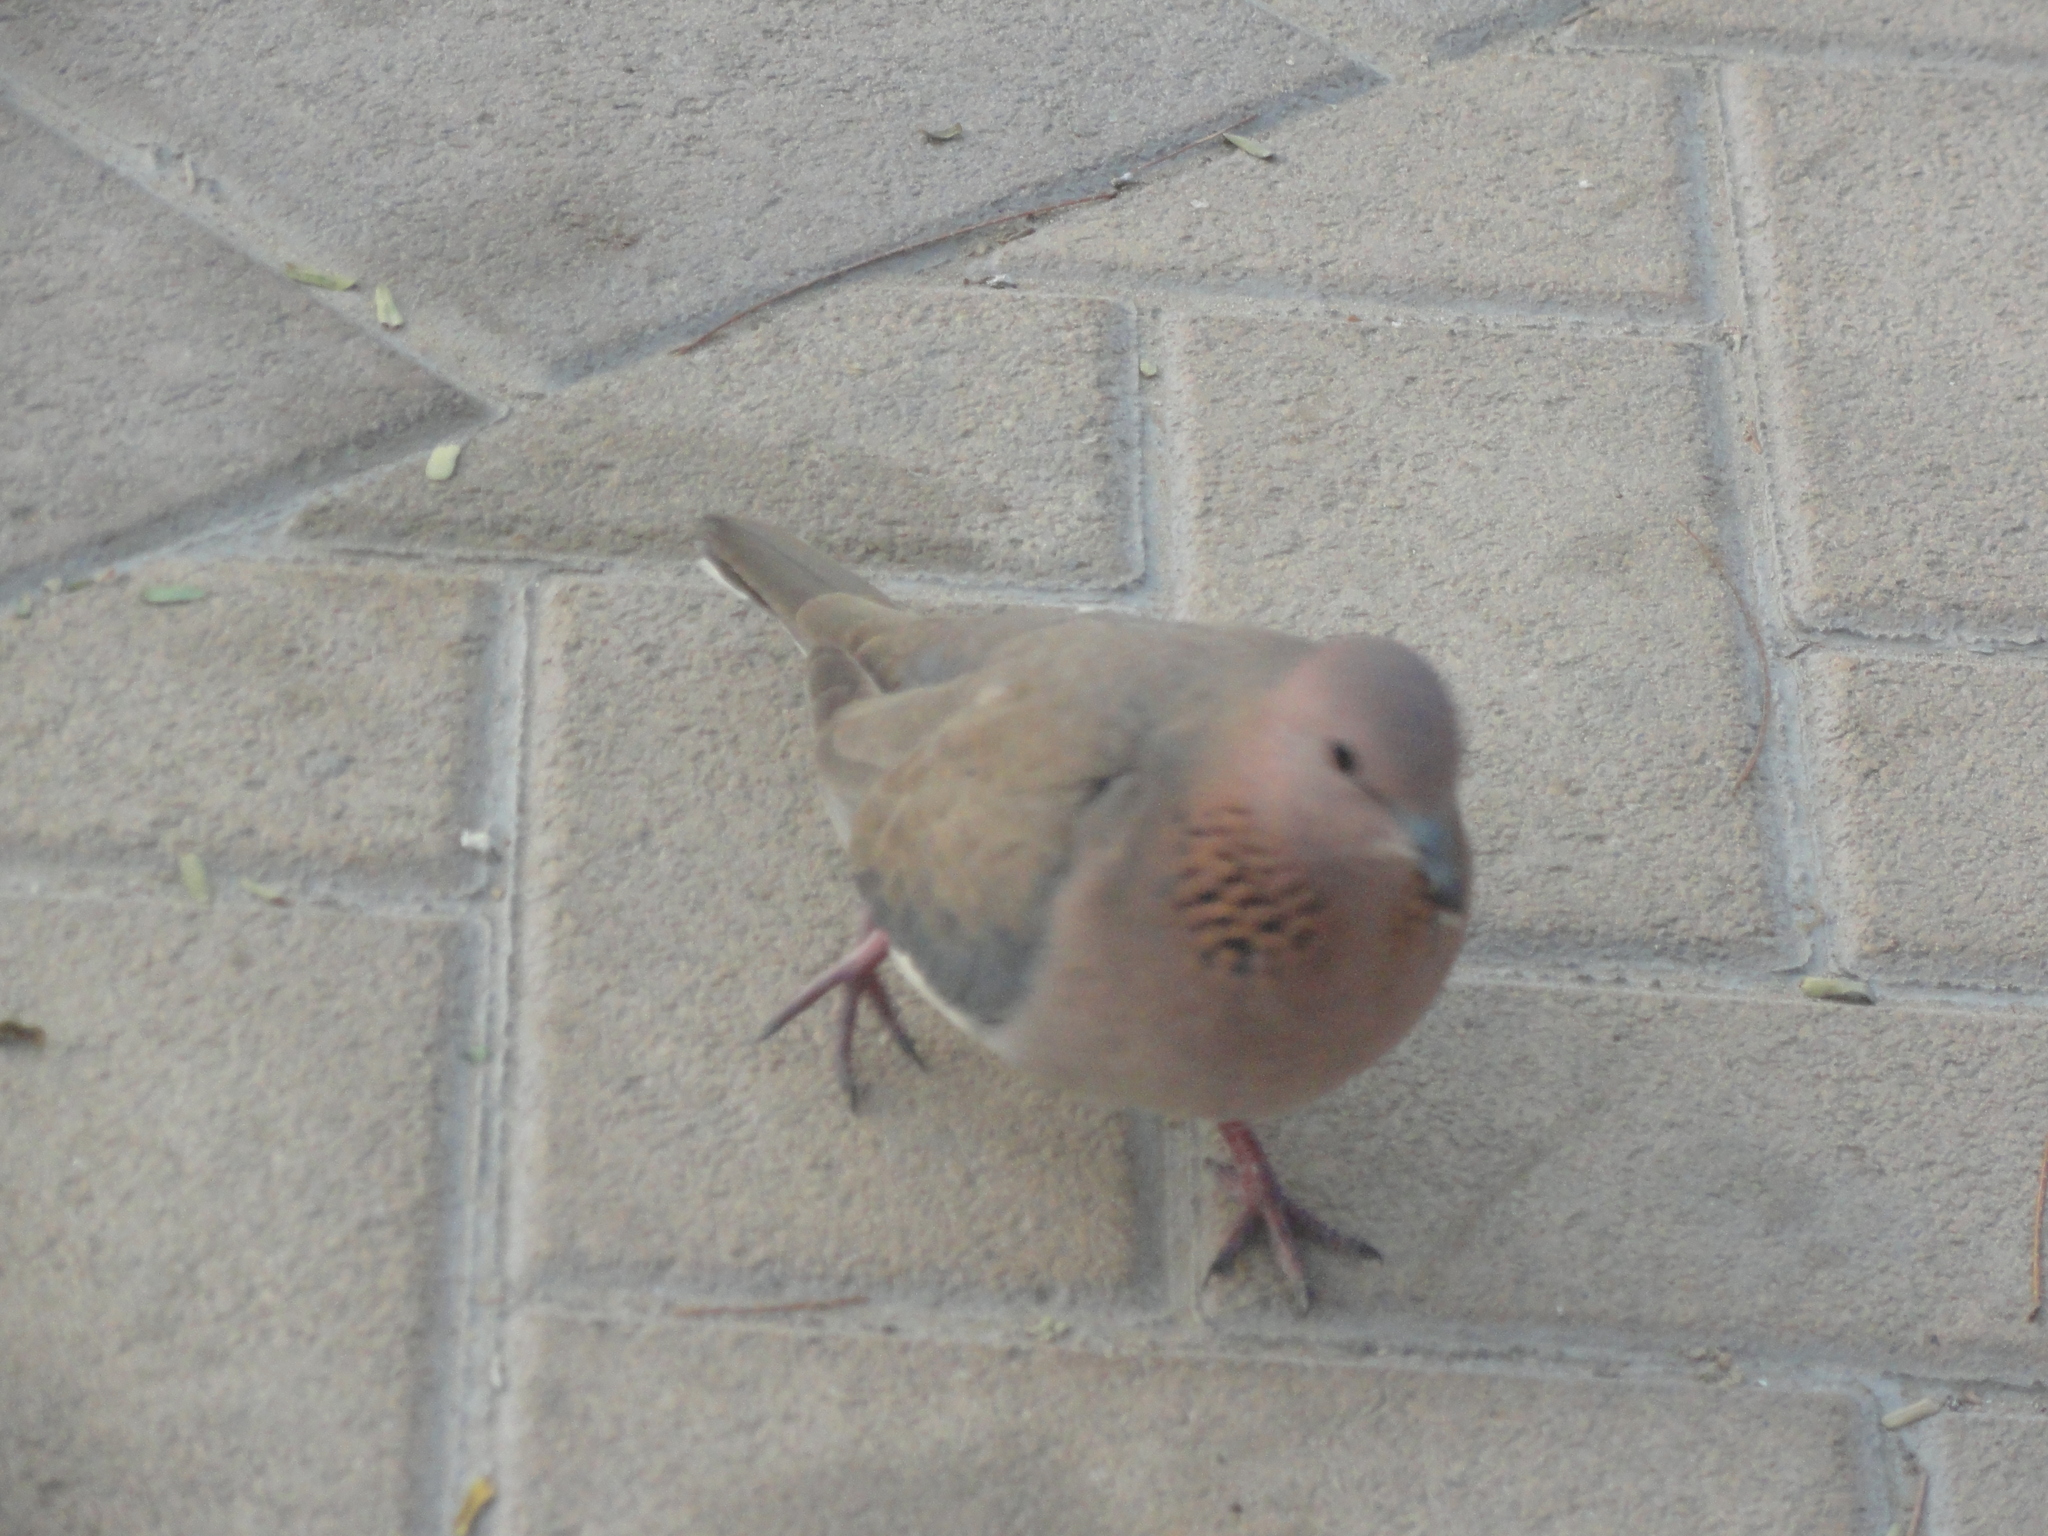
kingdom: Animalia
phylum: Chordata
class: Aves
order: Columbiformes
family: Columbidae
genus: Spilopelia
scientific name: Spilopelia senegalensis
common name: Laughing dove
